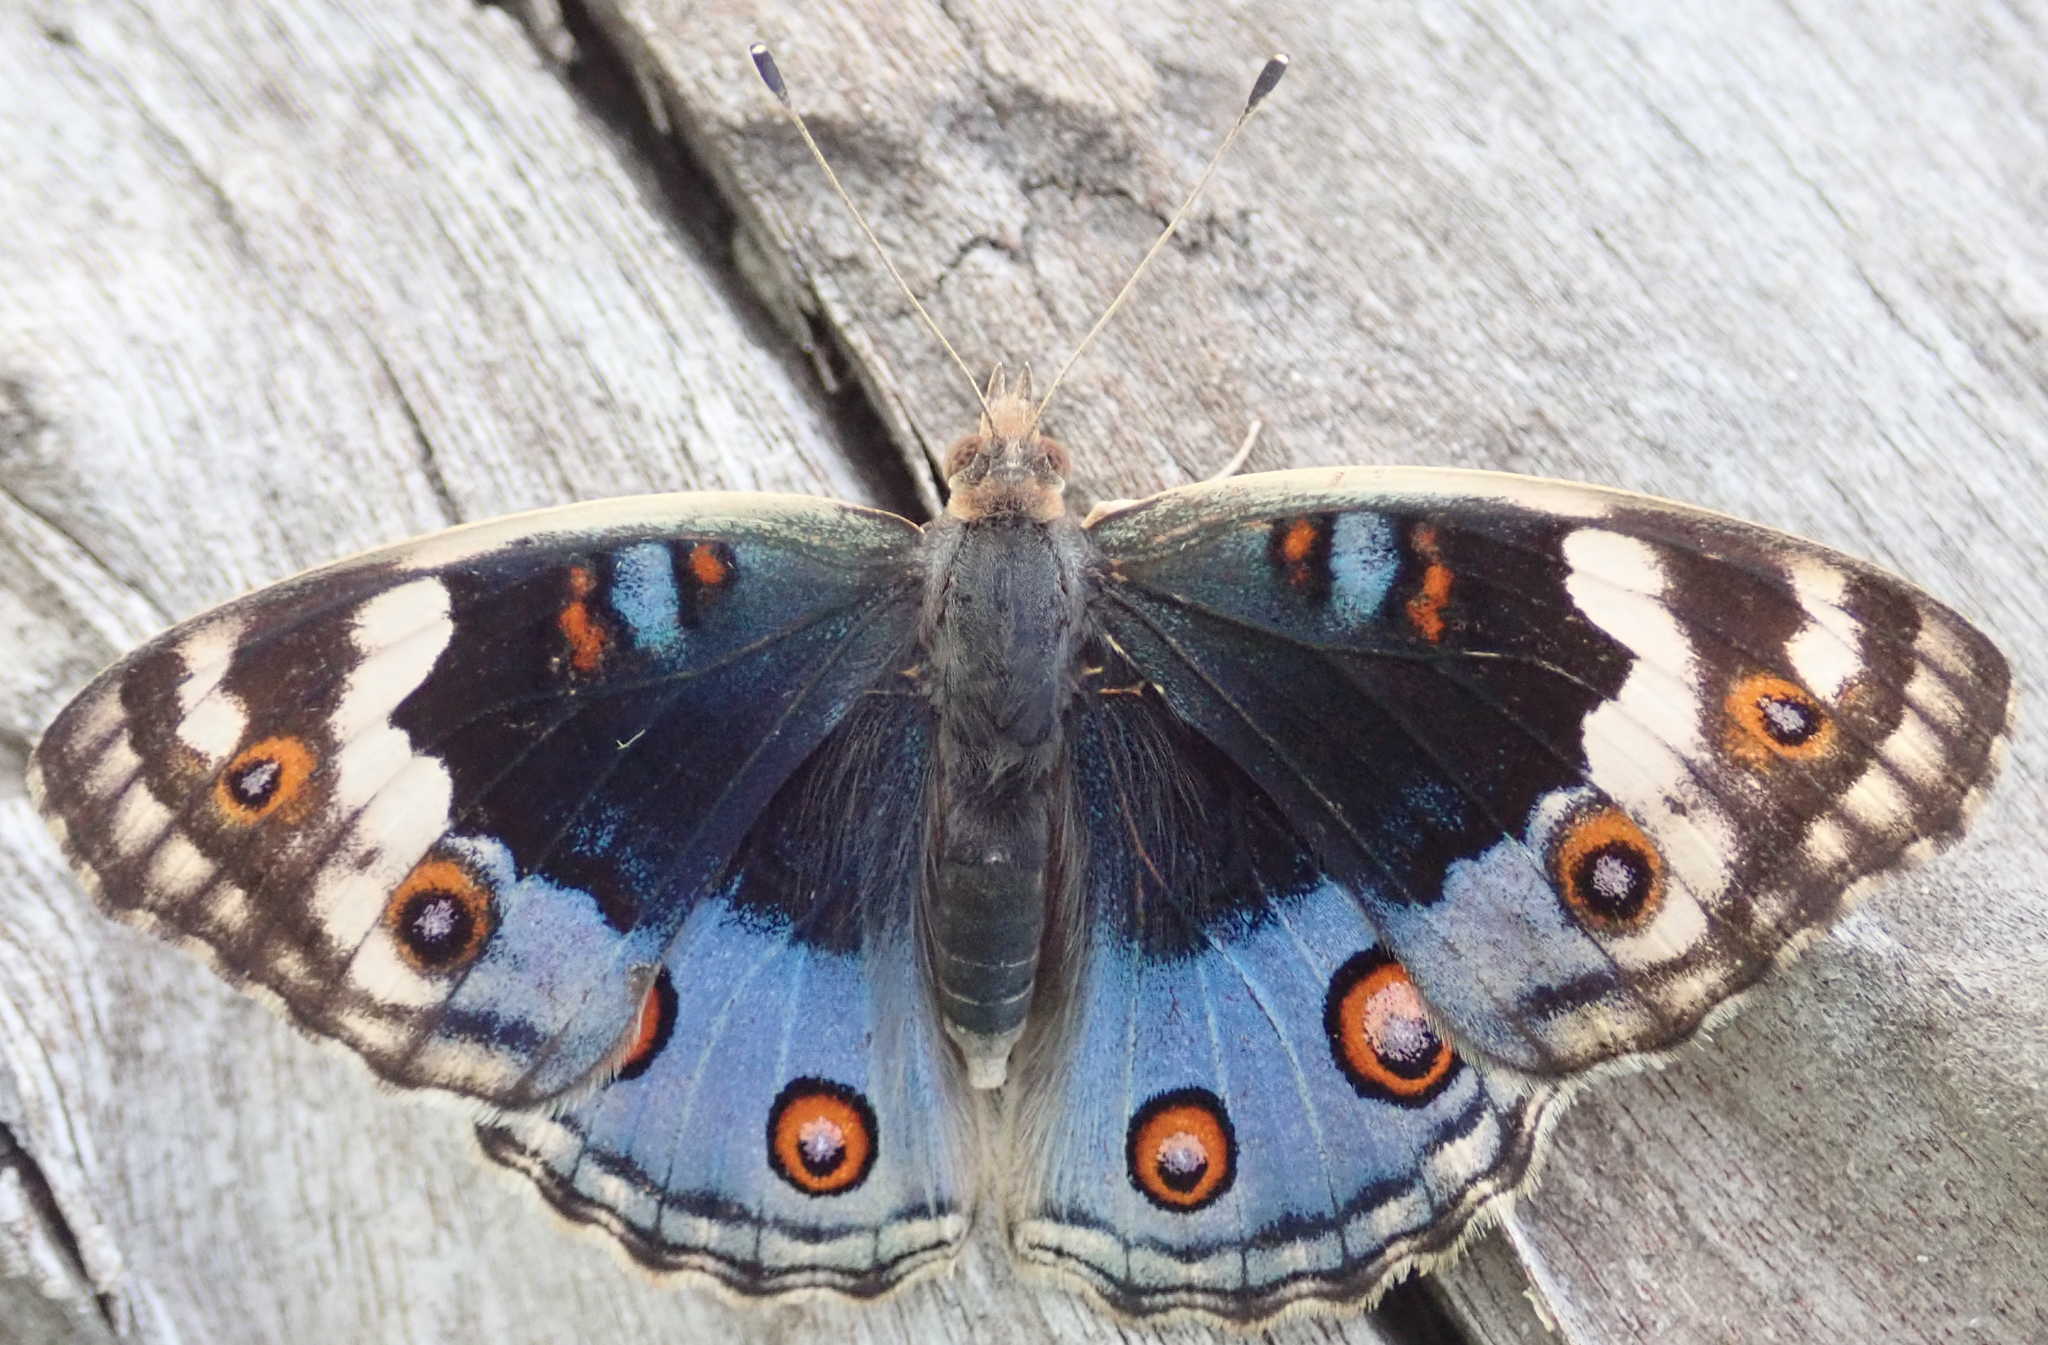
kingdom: Animalia
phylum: Arthropoda
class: Insecta
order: Lepidoptera
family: Nymphalidae
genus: Junonia
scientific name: Junonia orithya
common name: Blue pansy
